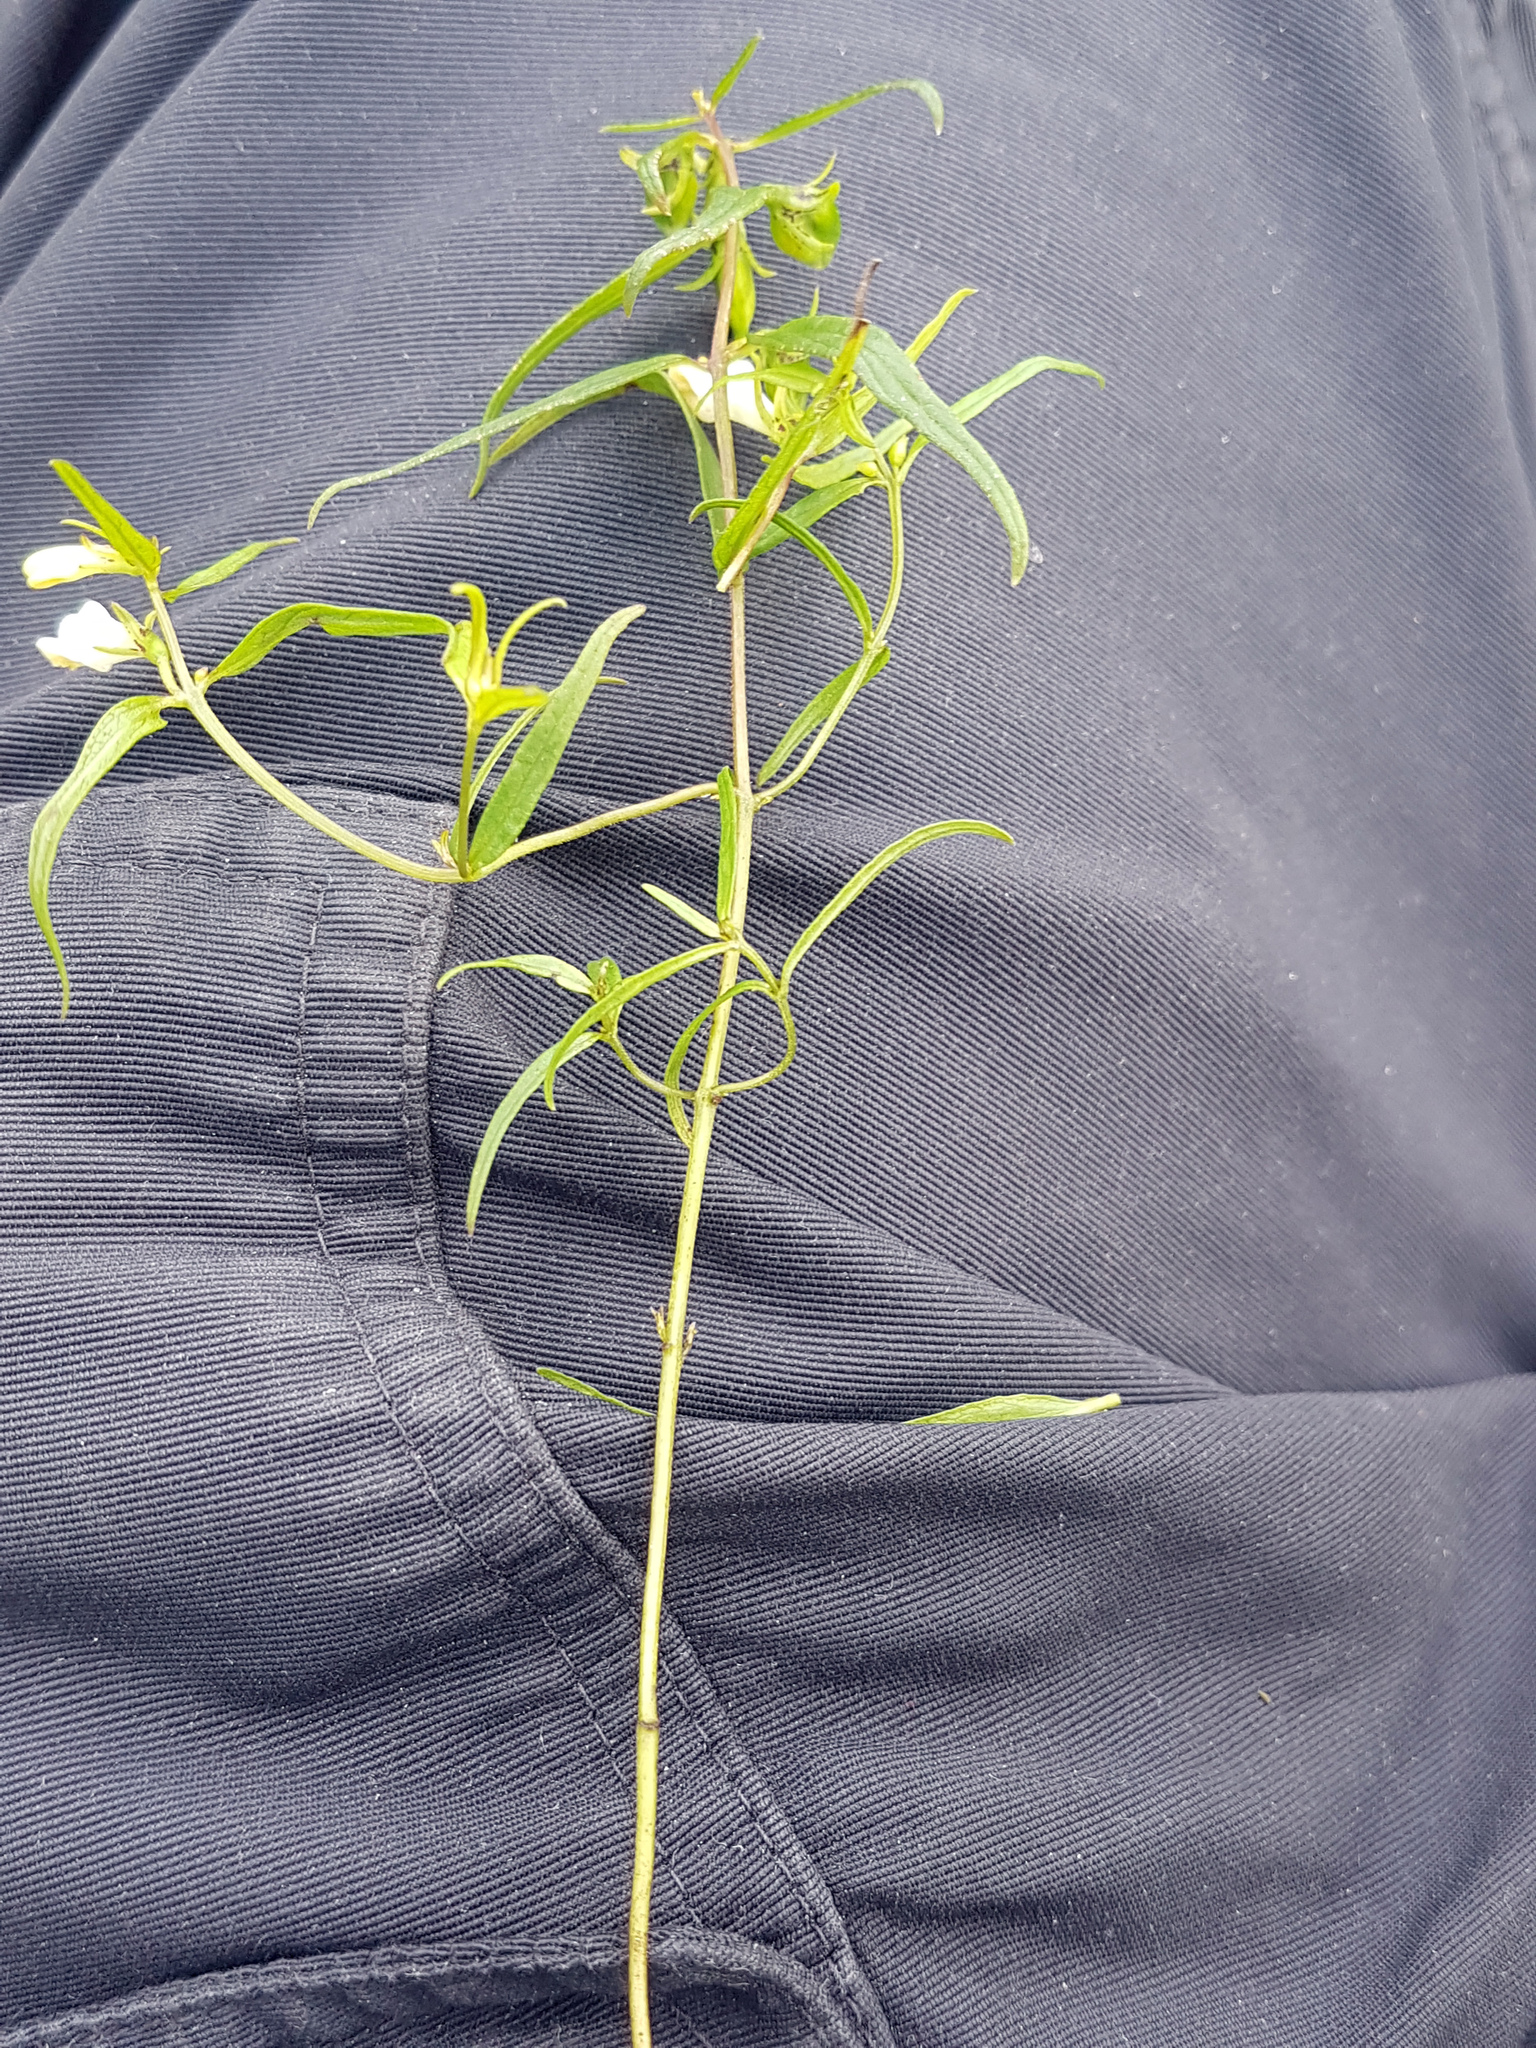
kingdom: Plantae
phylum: Tracheophyta
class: Magnoliopsida
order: Lamiales
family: Orobanchaceae
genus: Melampyrum
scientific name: Melampyrum pratense
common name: Common cow-wheat
